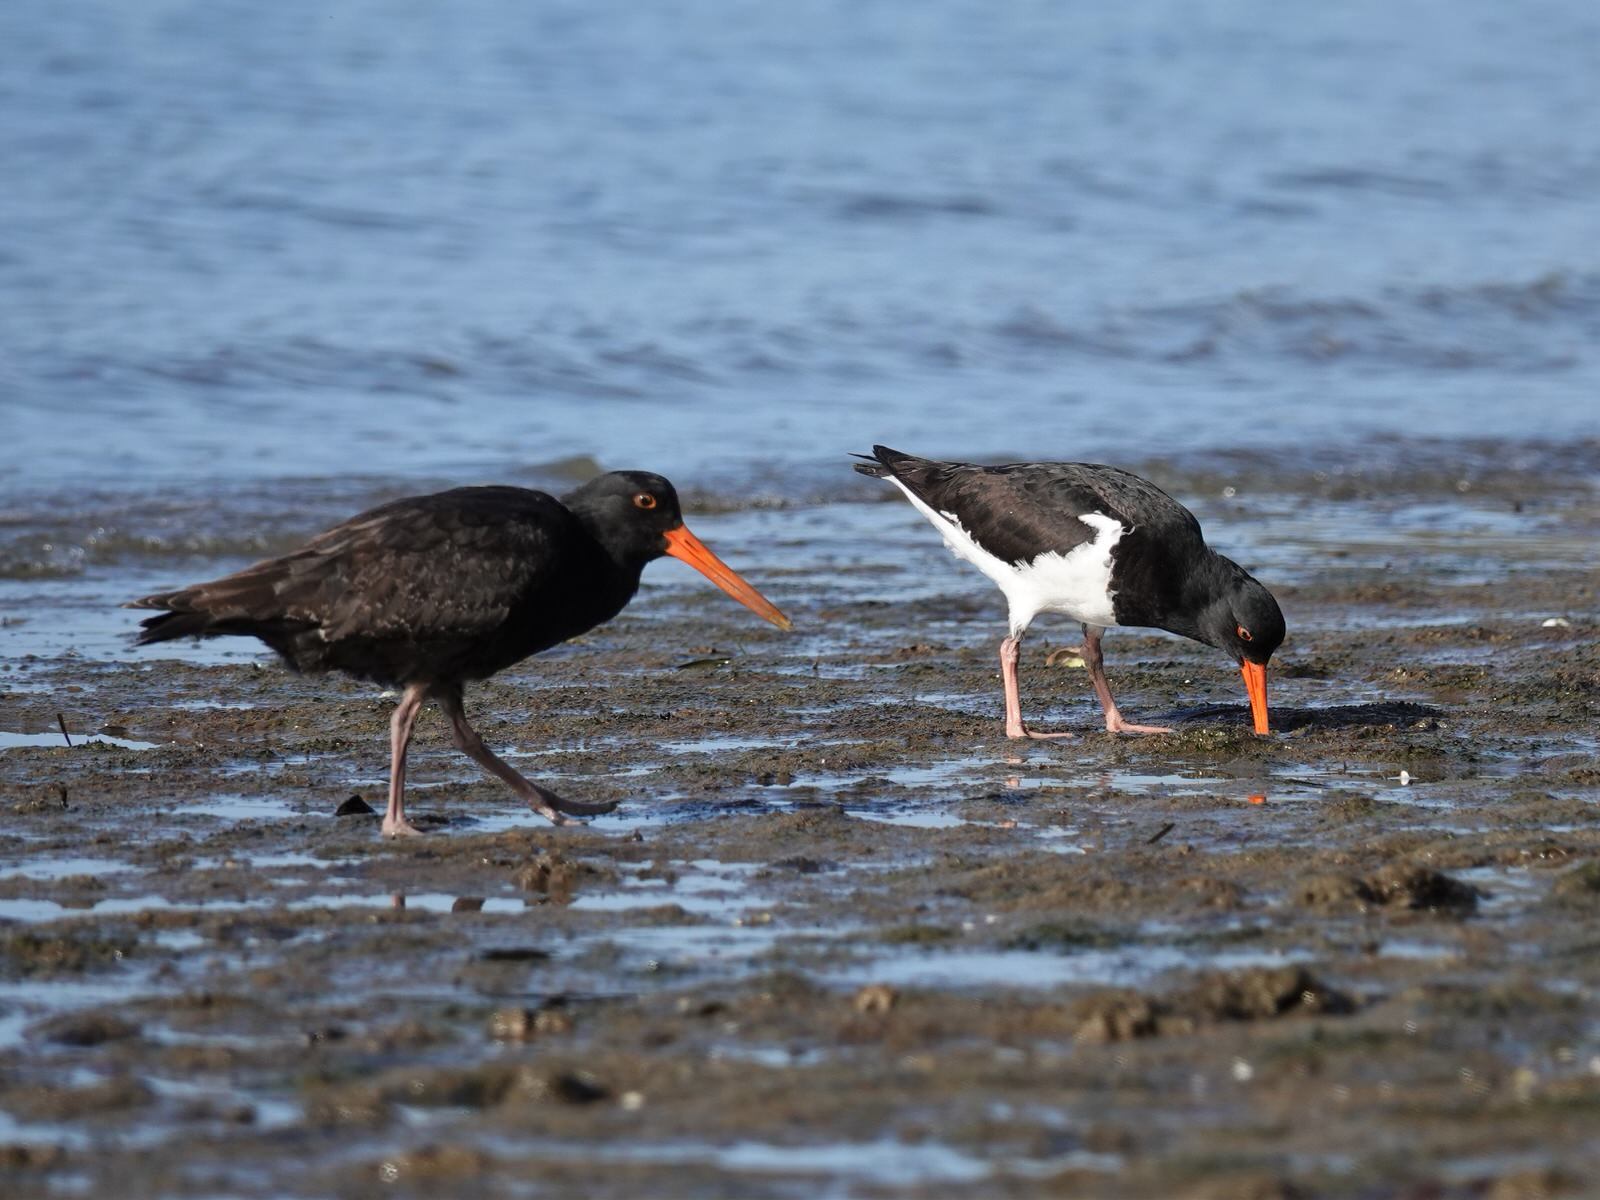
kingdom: Animalia
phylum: Chordata
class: Aves
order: Charadriiformes
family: Haematopodidae
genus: Haematopus
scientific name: Haematopus unicolor
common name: Variable oystercatcher
